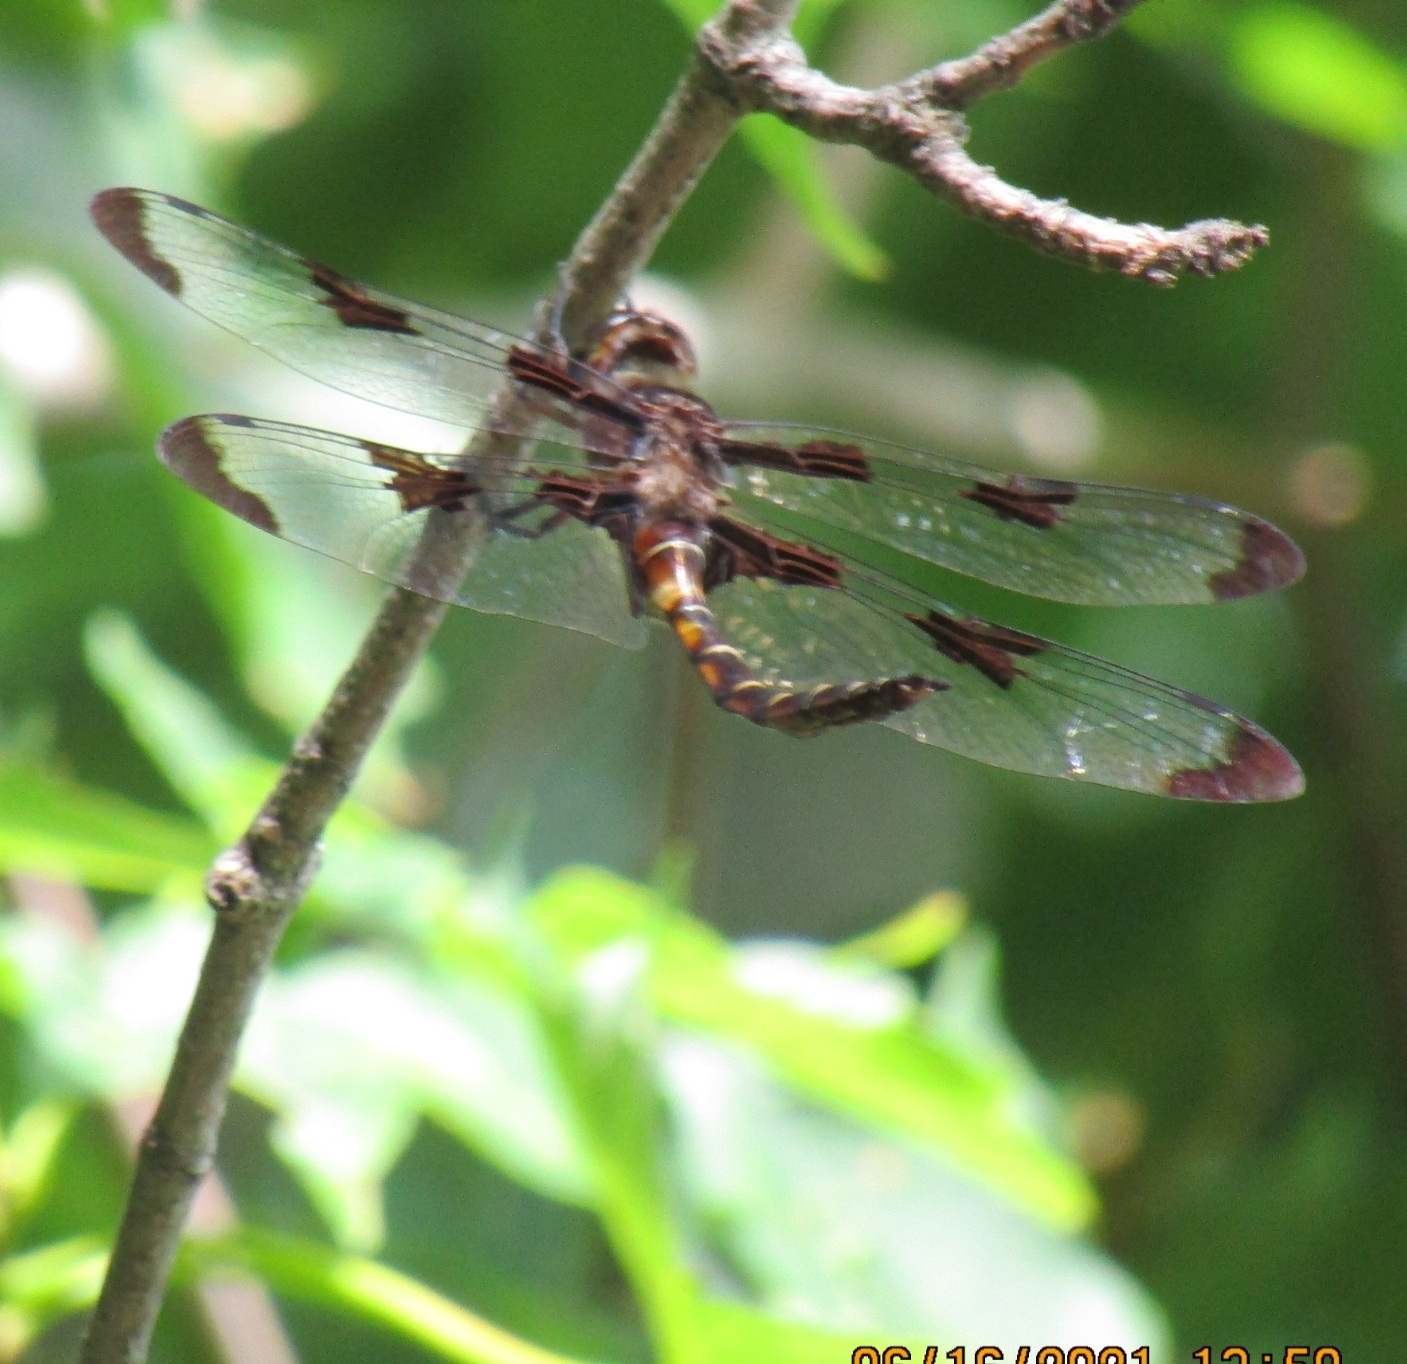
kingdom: Animalia
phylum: Arthropoda
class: Insecta
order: Odonata
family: Corduliidae
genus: Epitheca
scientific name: Epitheca princeps
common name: Prince baskettail
